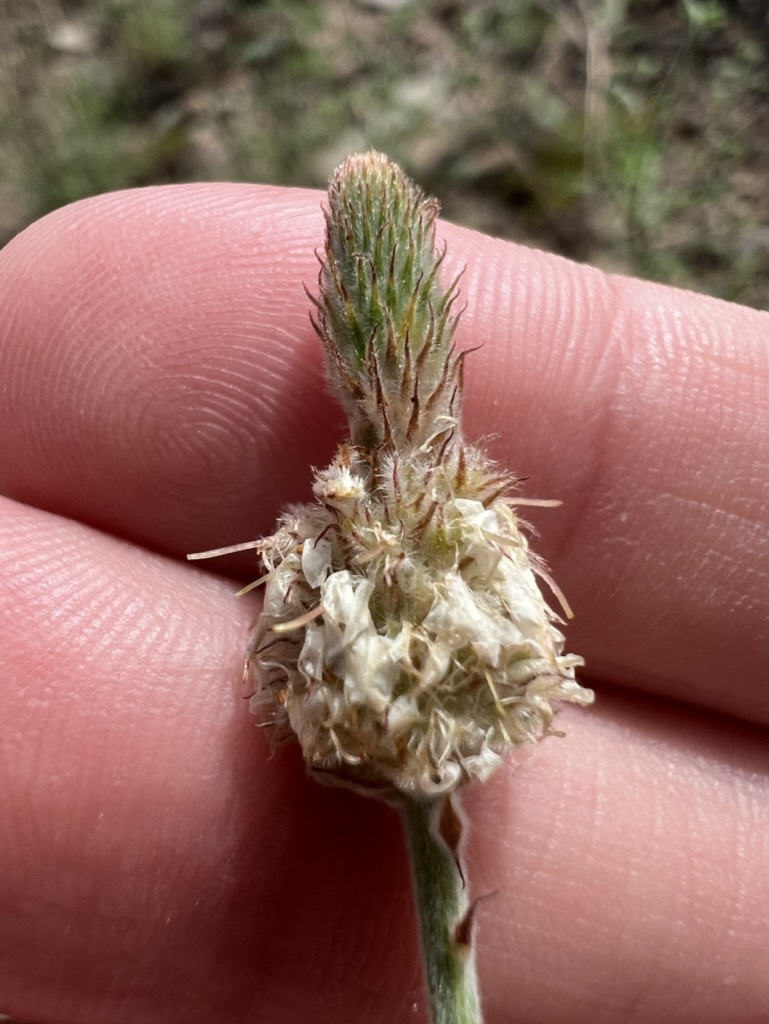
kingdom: Plantae
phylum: Tracheophyta
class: Magnoliopsida
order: Fabales
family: Fabaceae
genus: Dalea
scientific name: Dalea albiflora
